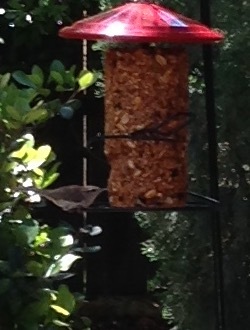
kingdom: Animalia
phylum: Chordata
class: Aves
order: Passeriformes
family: Troglodytidae
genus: Thryomanes
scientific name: Thryomanes bewickii
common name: Bewick's wren
